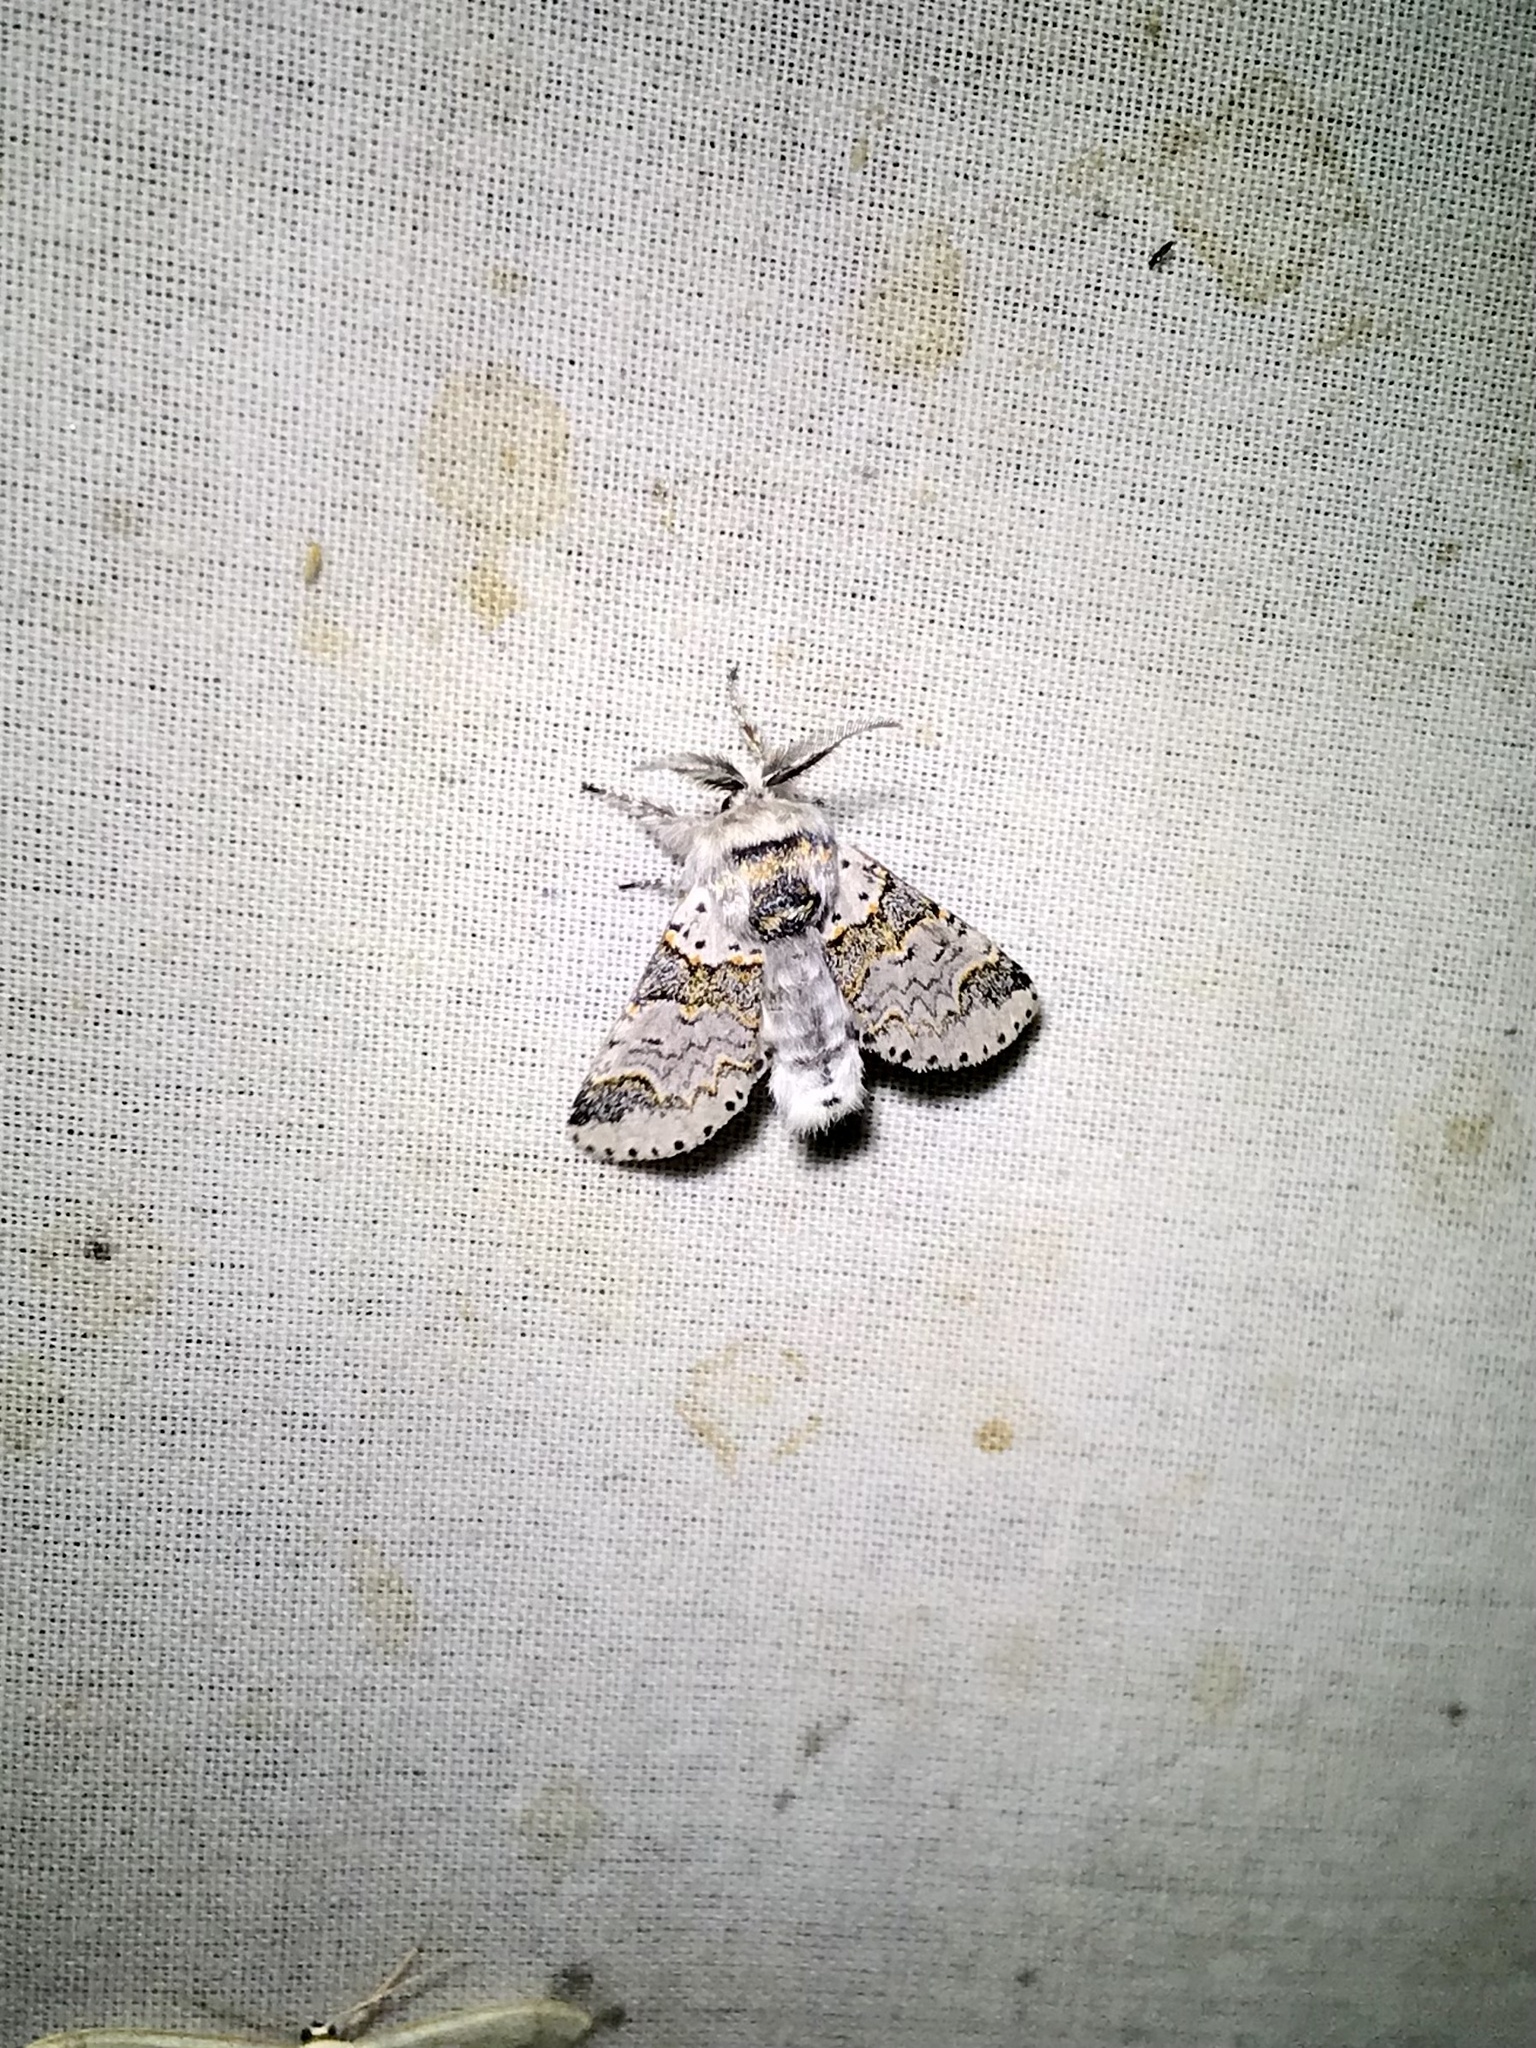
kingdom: Animalia
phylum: Arthropoda
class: Insecta
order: Lepidoptera
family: Notodontidae
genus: Furcula
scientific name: Furcula occidentalis
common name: Western furcula moth
